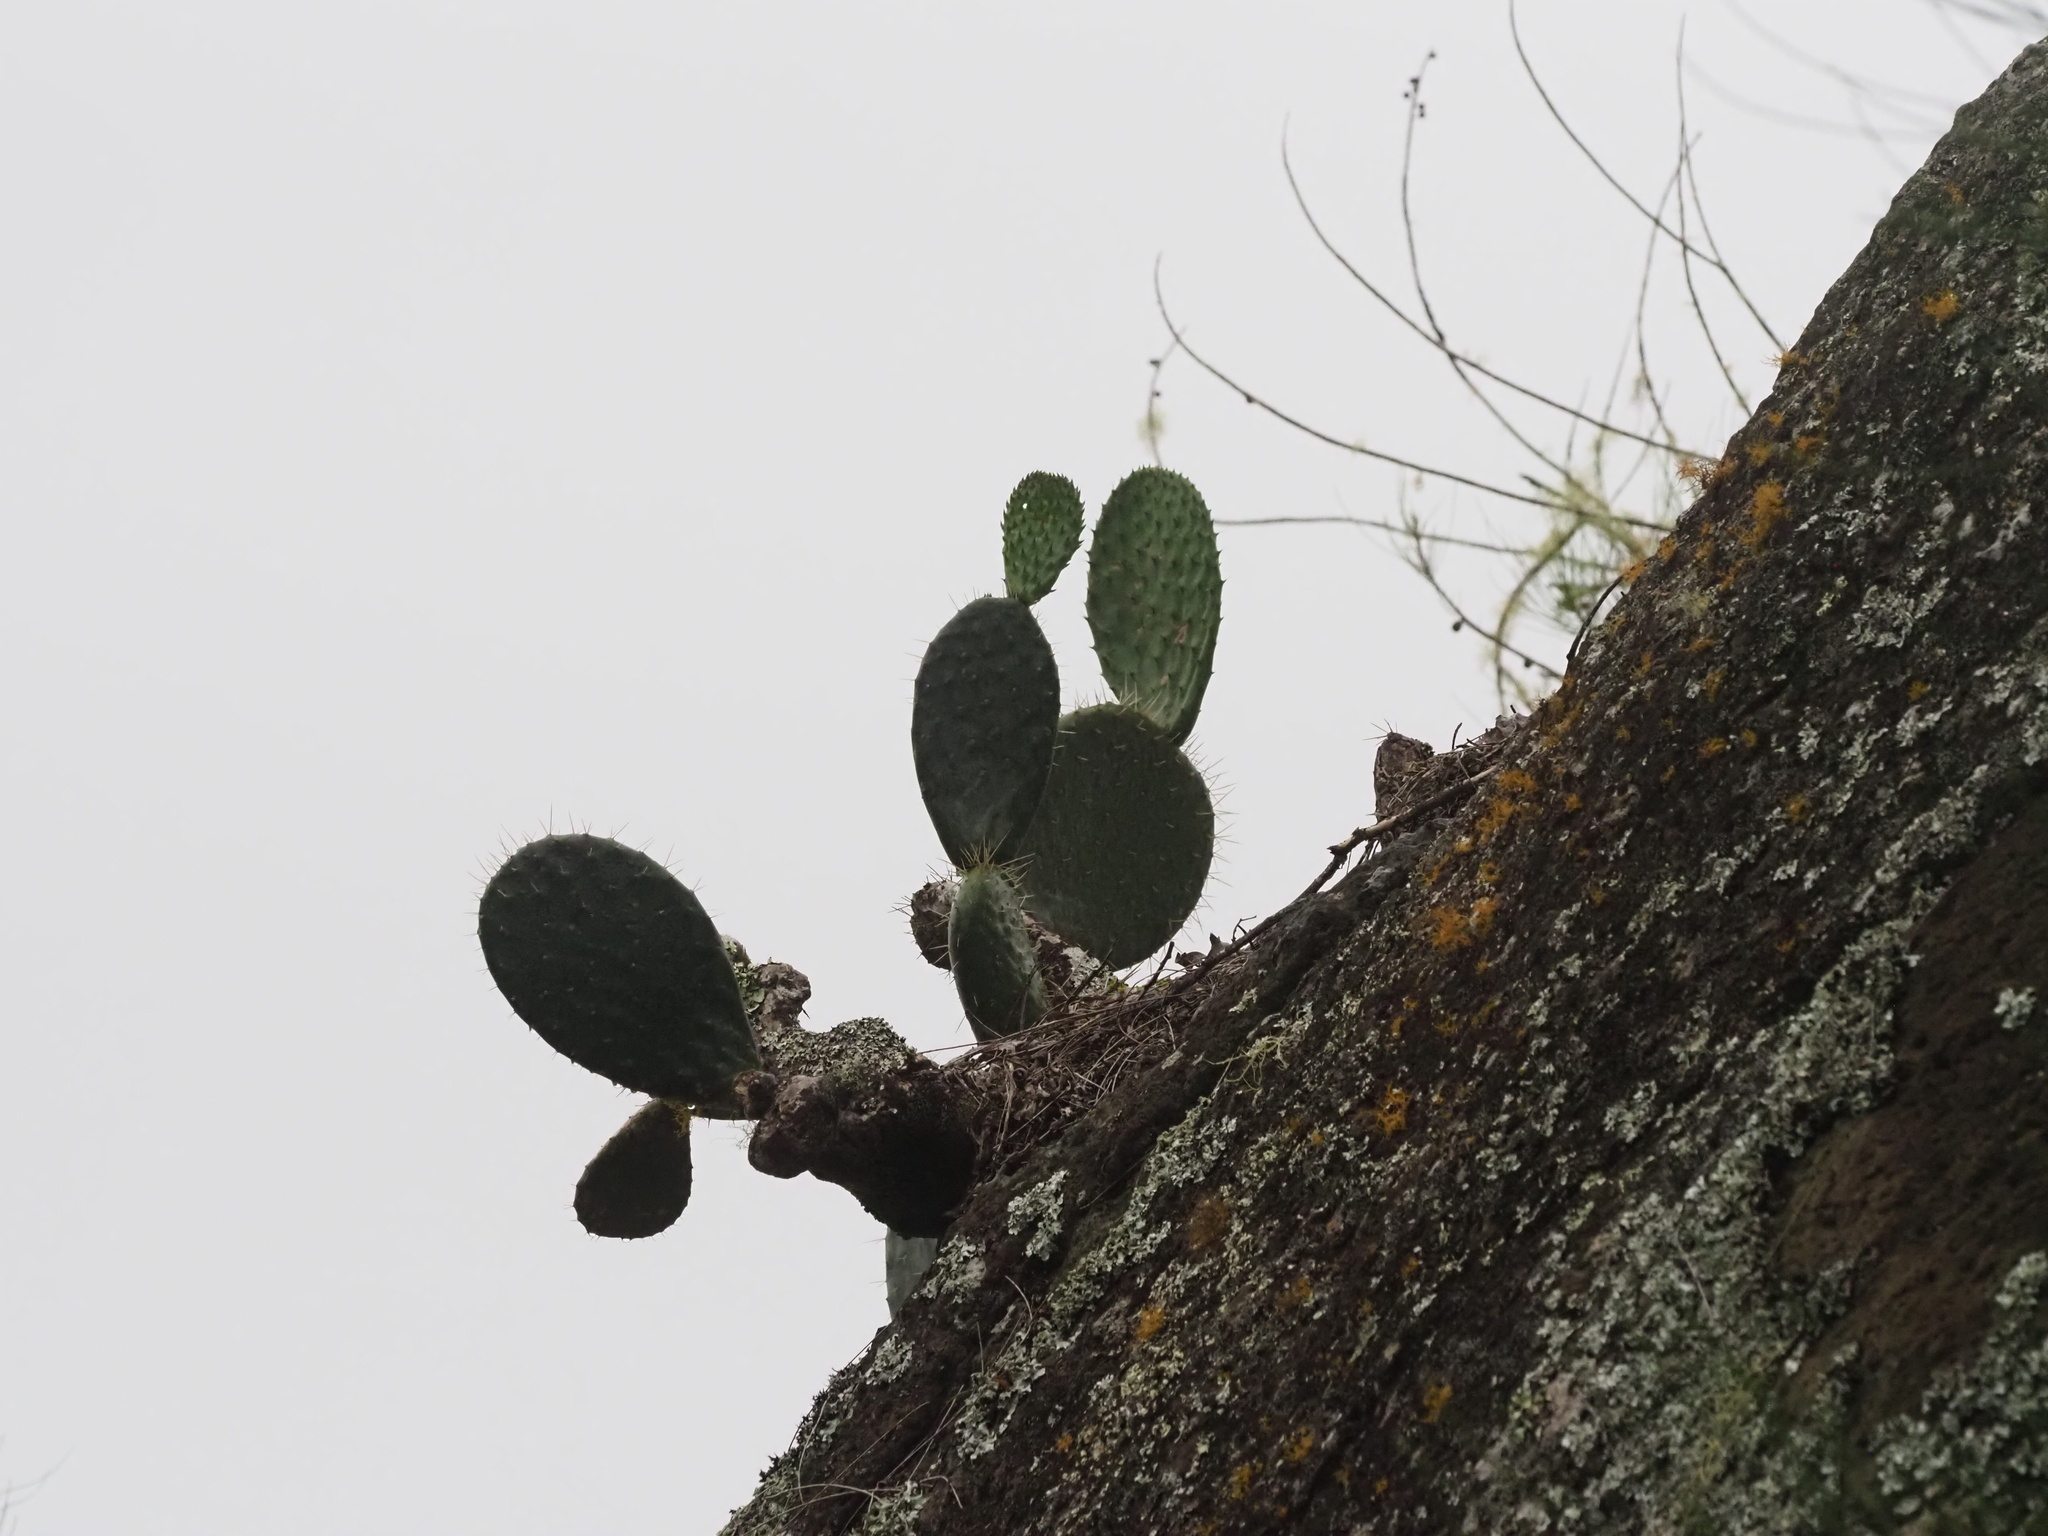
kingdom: Plantae
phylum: Tracheophyta
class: Magnoliopsida
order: Caryophyllales
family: Cactaceae
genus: Opuntia
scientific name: Opuntia ficus-indica
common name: Barbary fig
